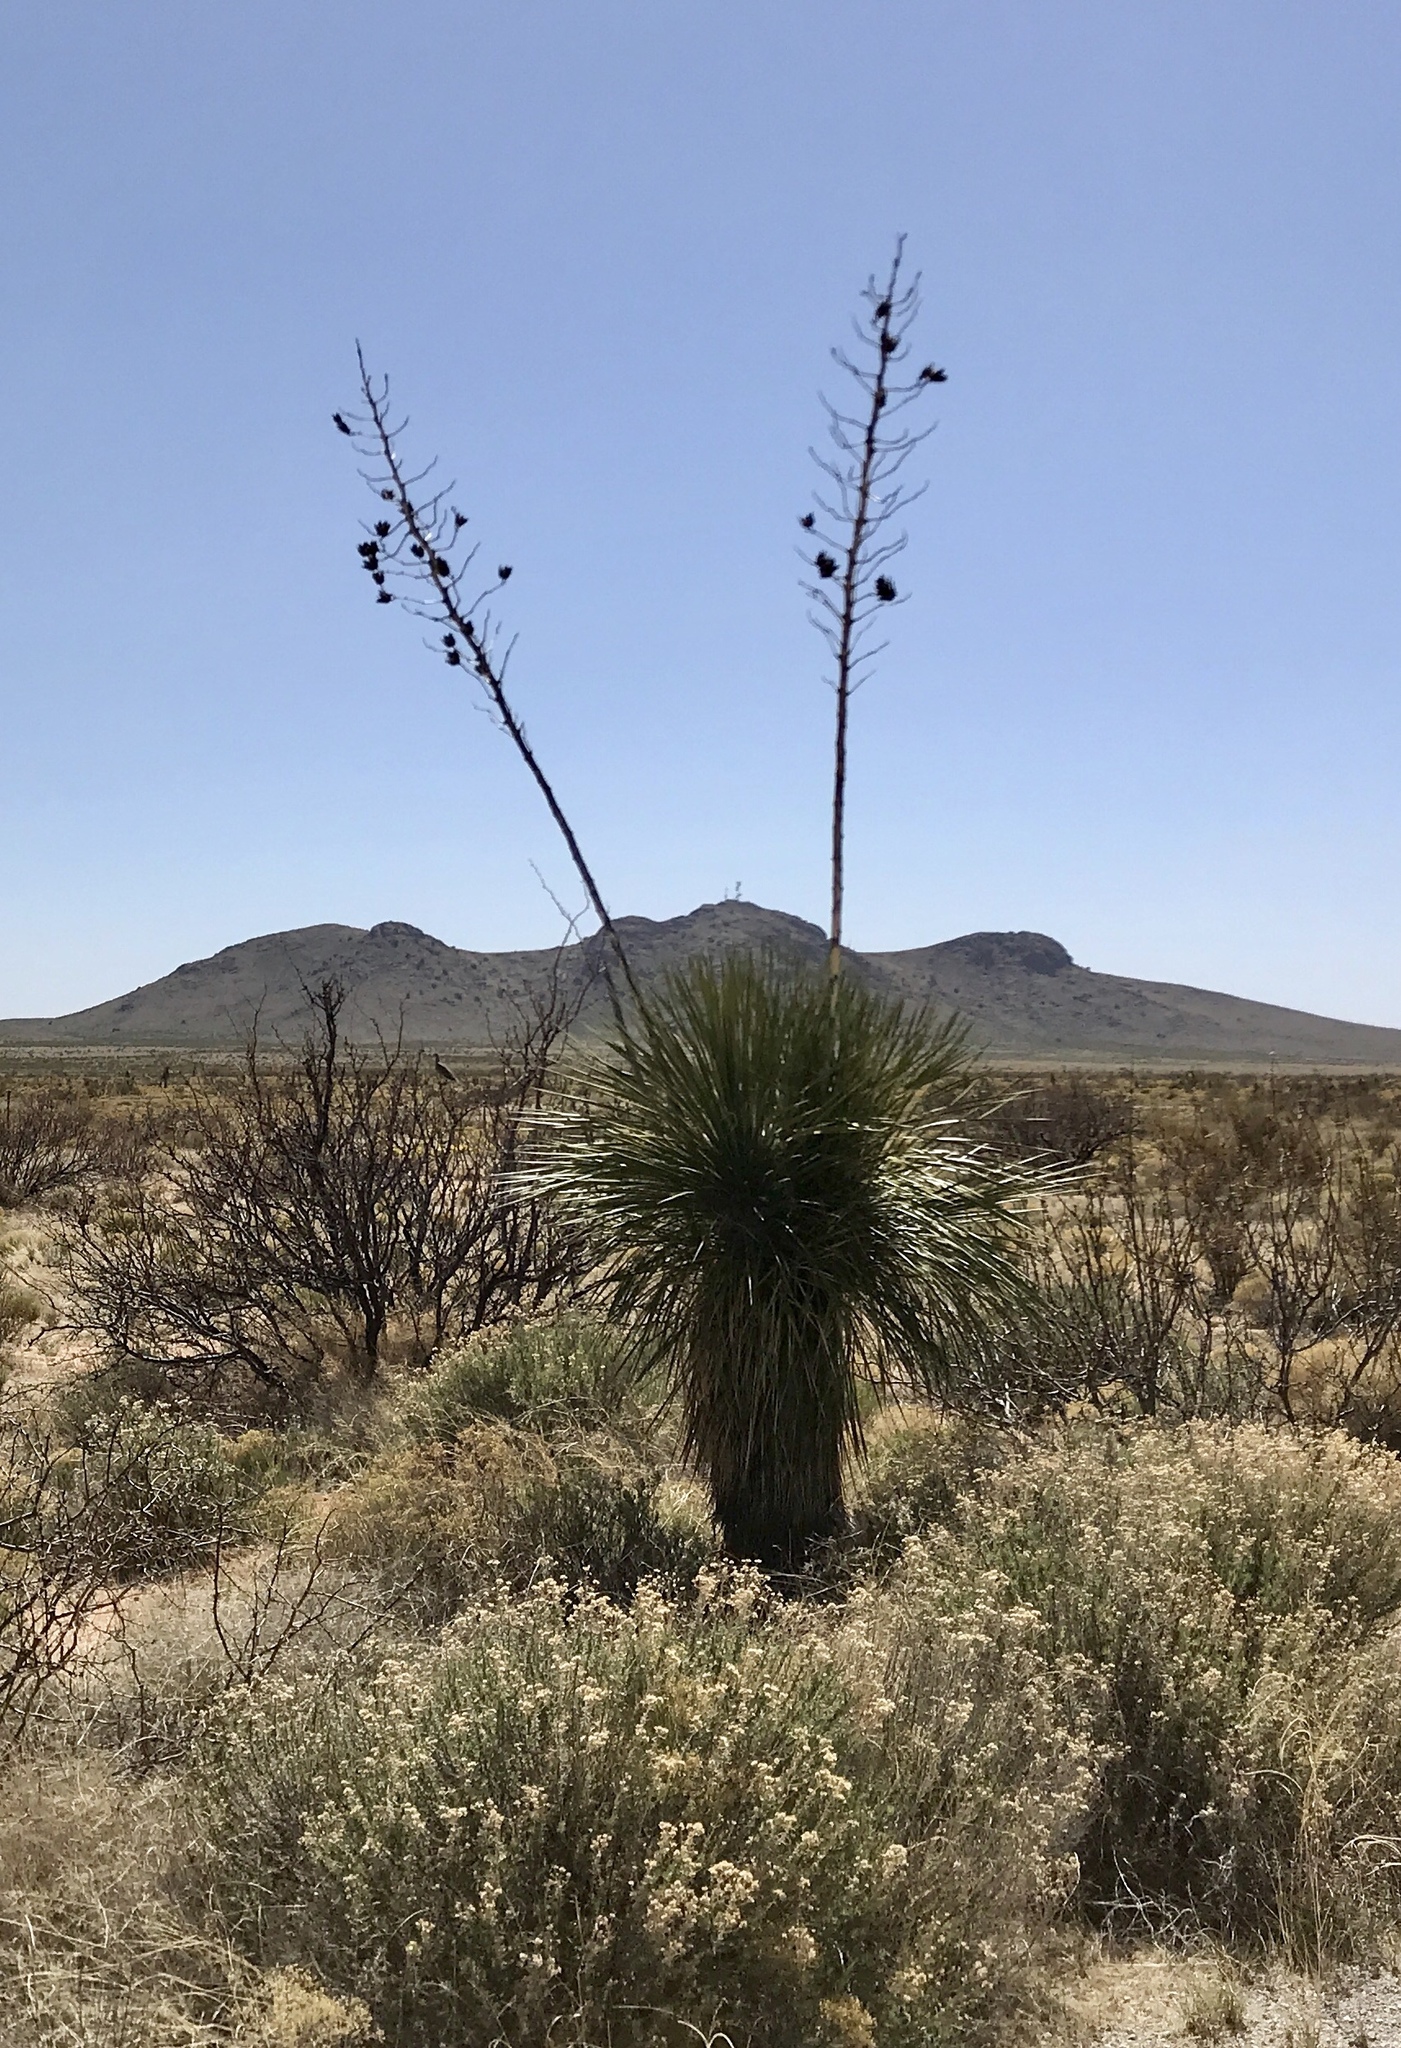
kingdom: Plantae
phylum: Tracheophyta
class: Liliopsida
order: Asparagales
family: Asparagaceae
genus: Yucca
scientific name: Yucca elata
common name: Palmella
